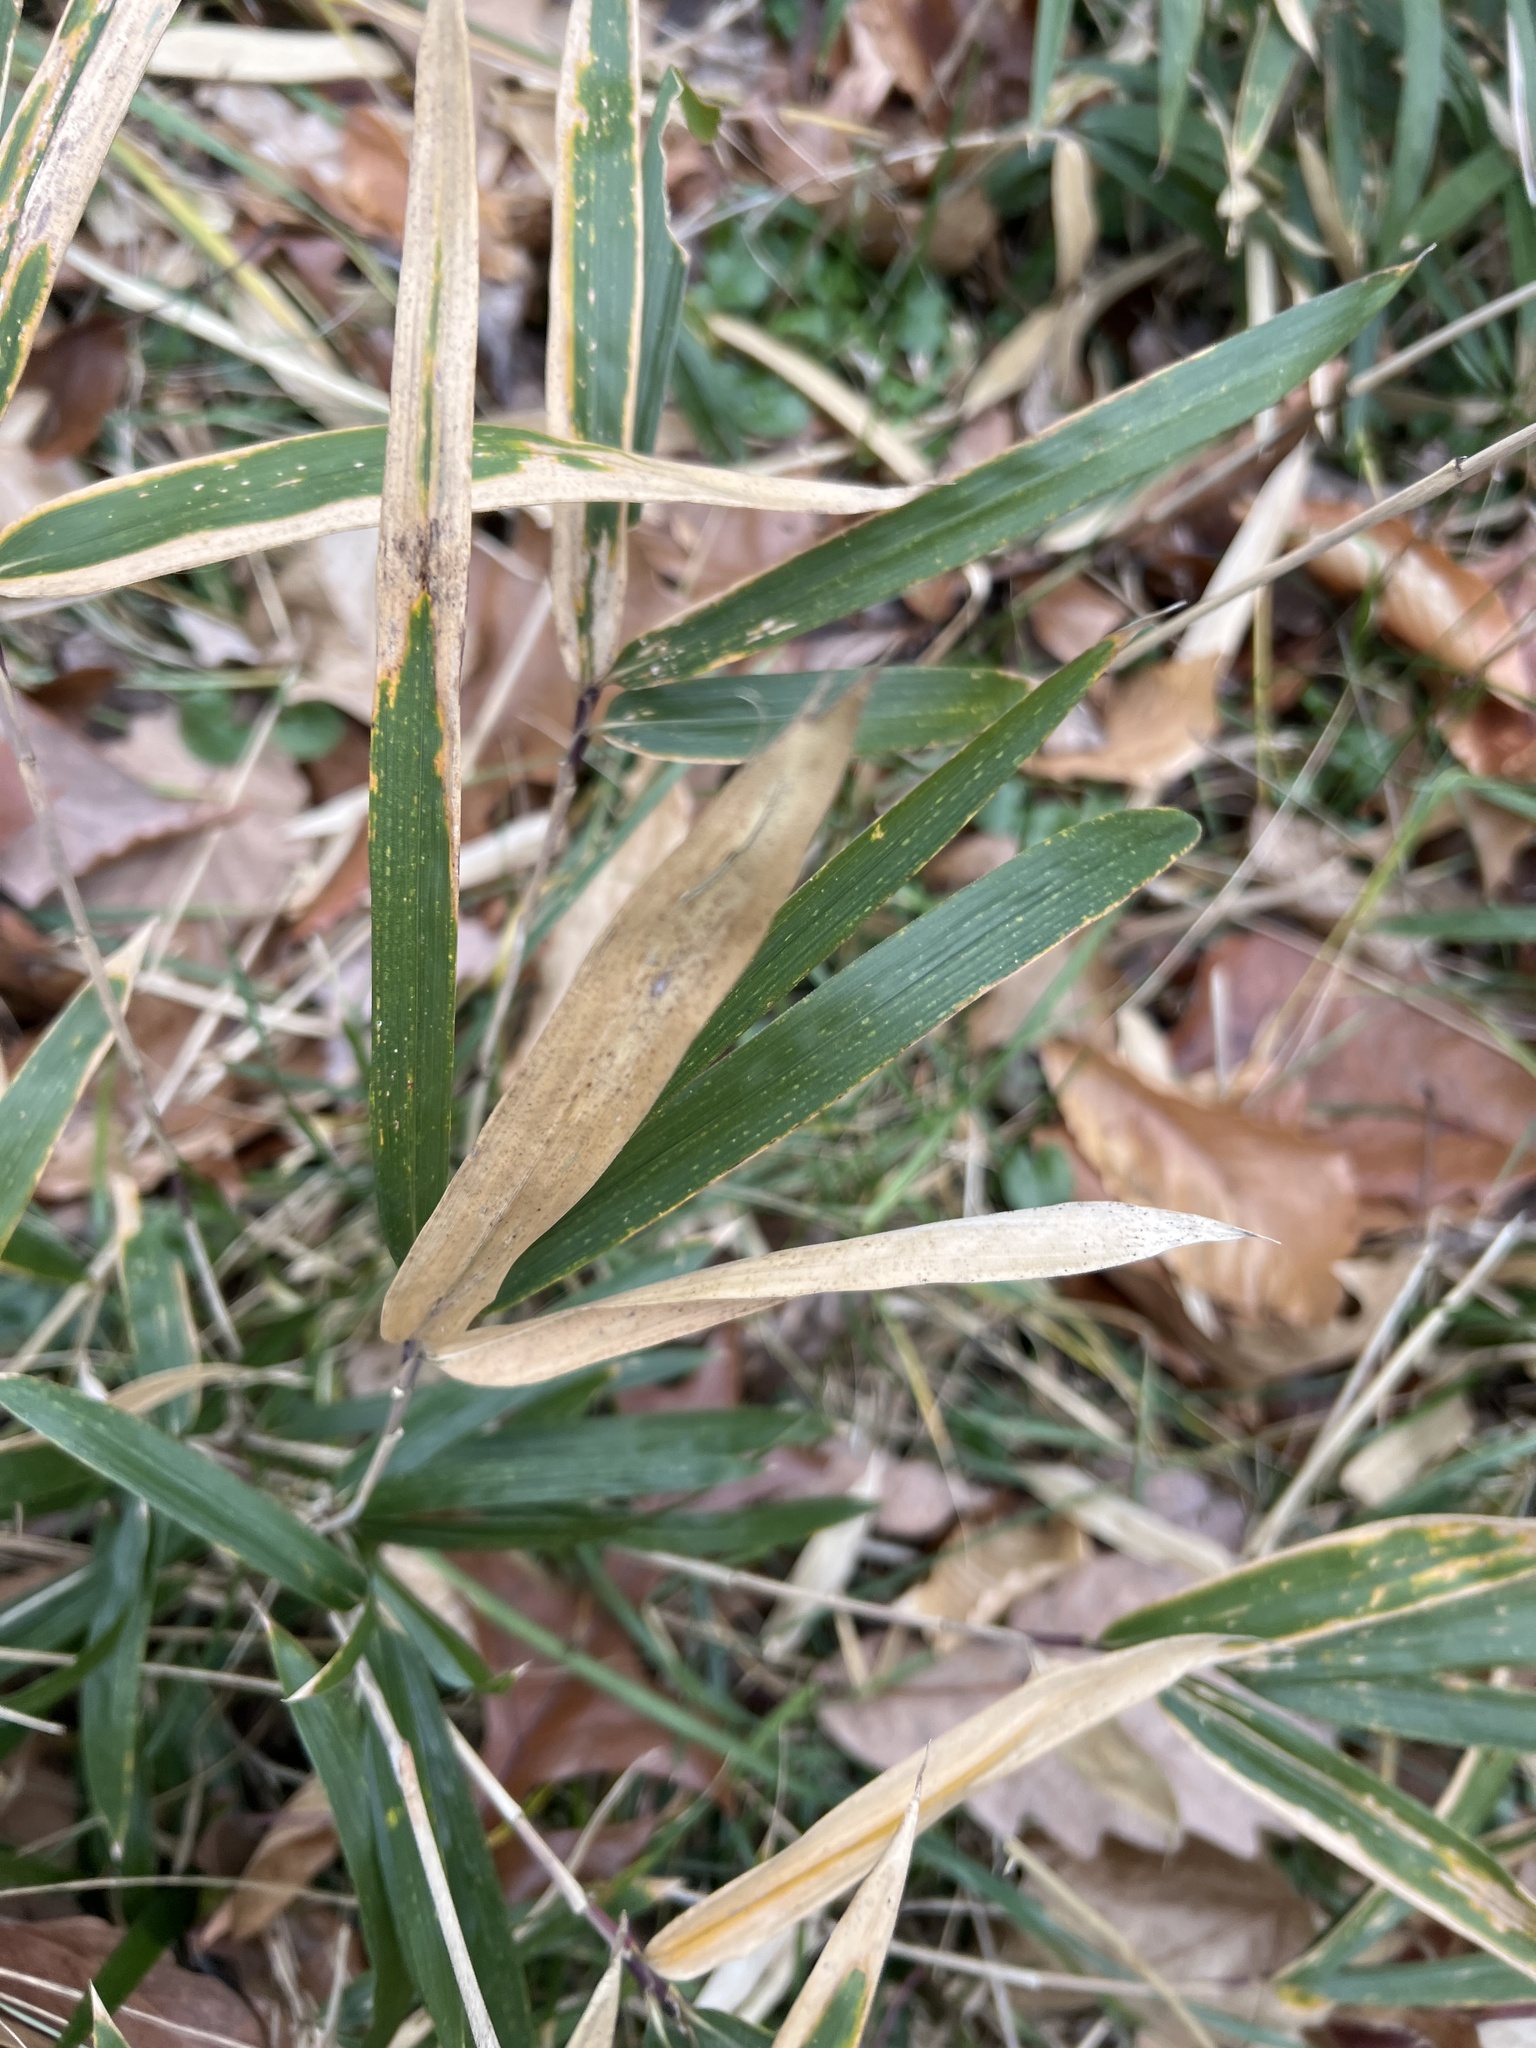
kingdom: Plantae
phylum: Tracheophyta
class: Liliopsida
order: Poales
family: Poaceae
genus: Pleioblastus
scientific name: Pleioblastus variegatus
